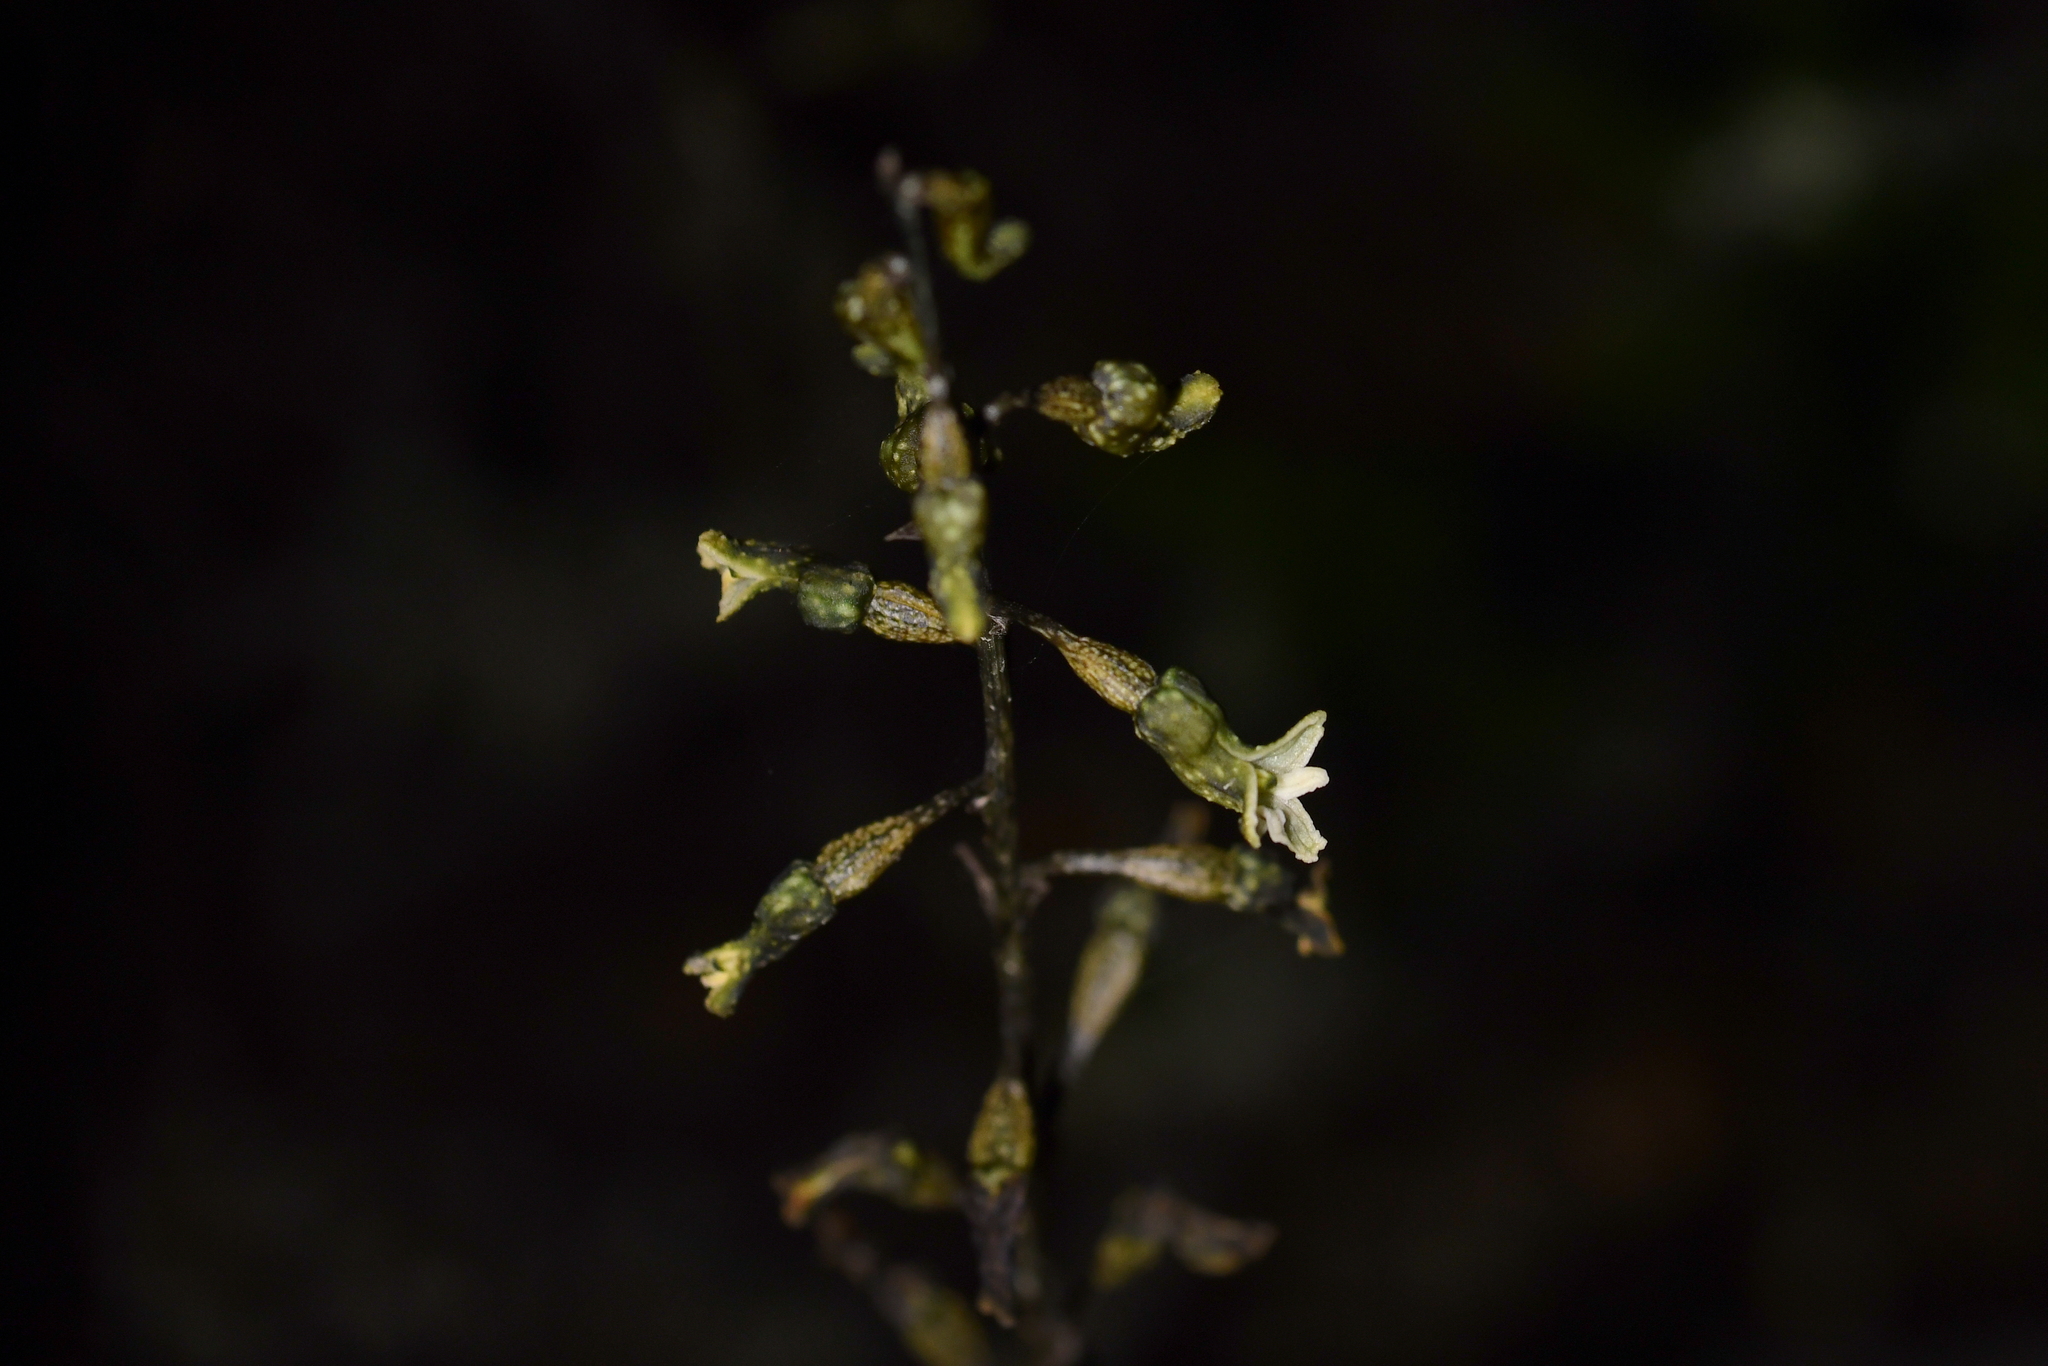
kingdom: Plantae
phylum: Tracheophyta
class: Liliopsida
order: Asparagales
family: Orchidaceae
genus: Gastrodia
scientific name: Gastrodia cunninghamii
